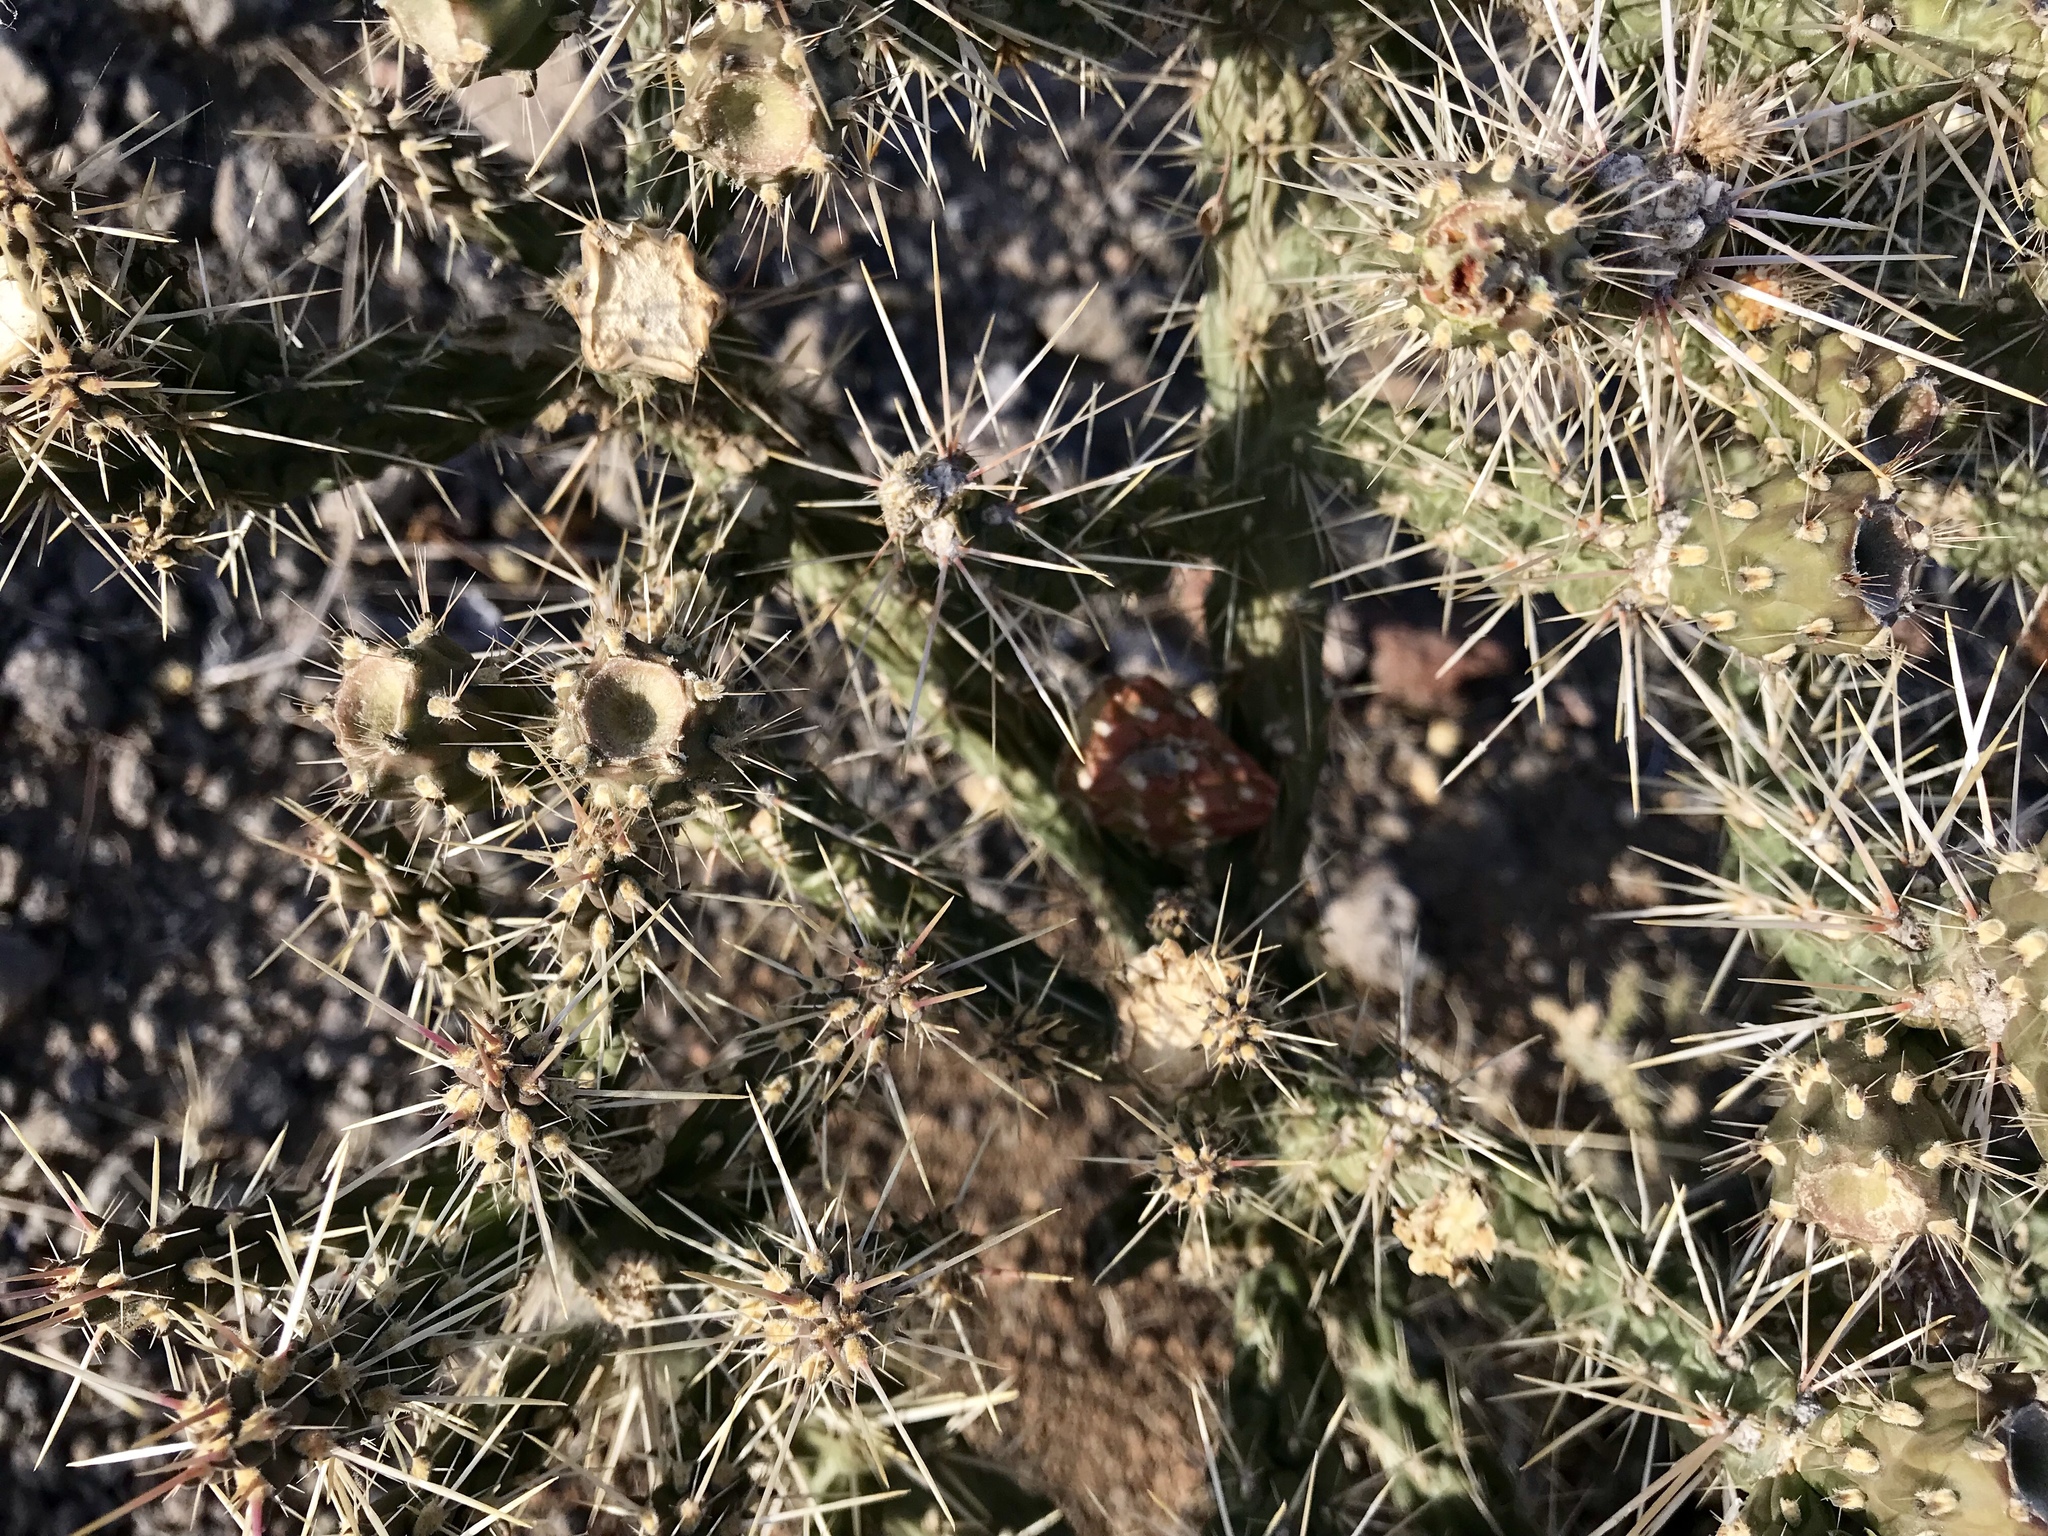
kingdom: Plantae
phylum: Tracheophyta
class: Magnoliopsida
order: Caryophyllales
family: Cactaceae
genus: Cylindropuntia
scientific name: Cylindropuntia whipplei
